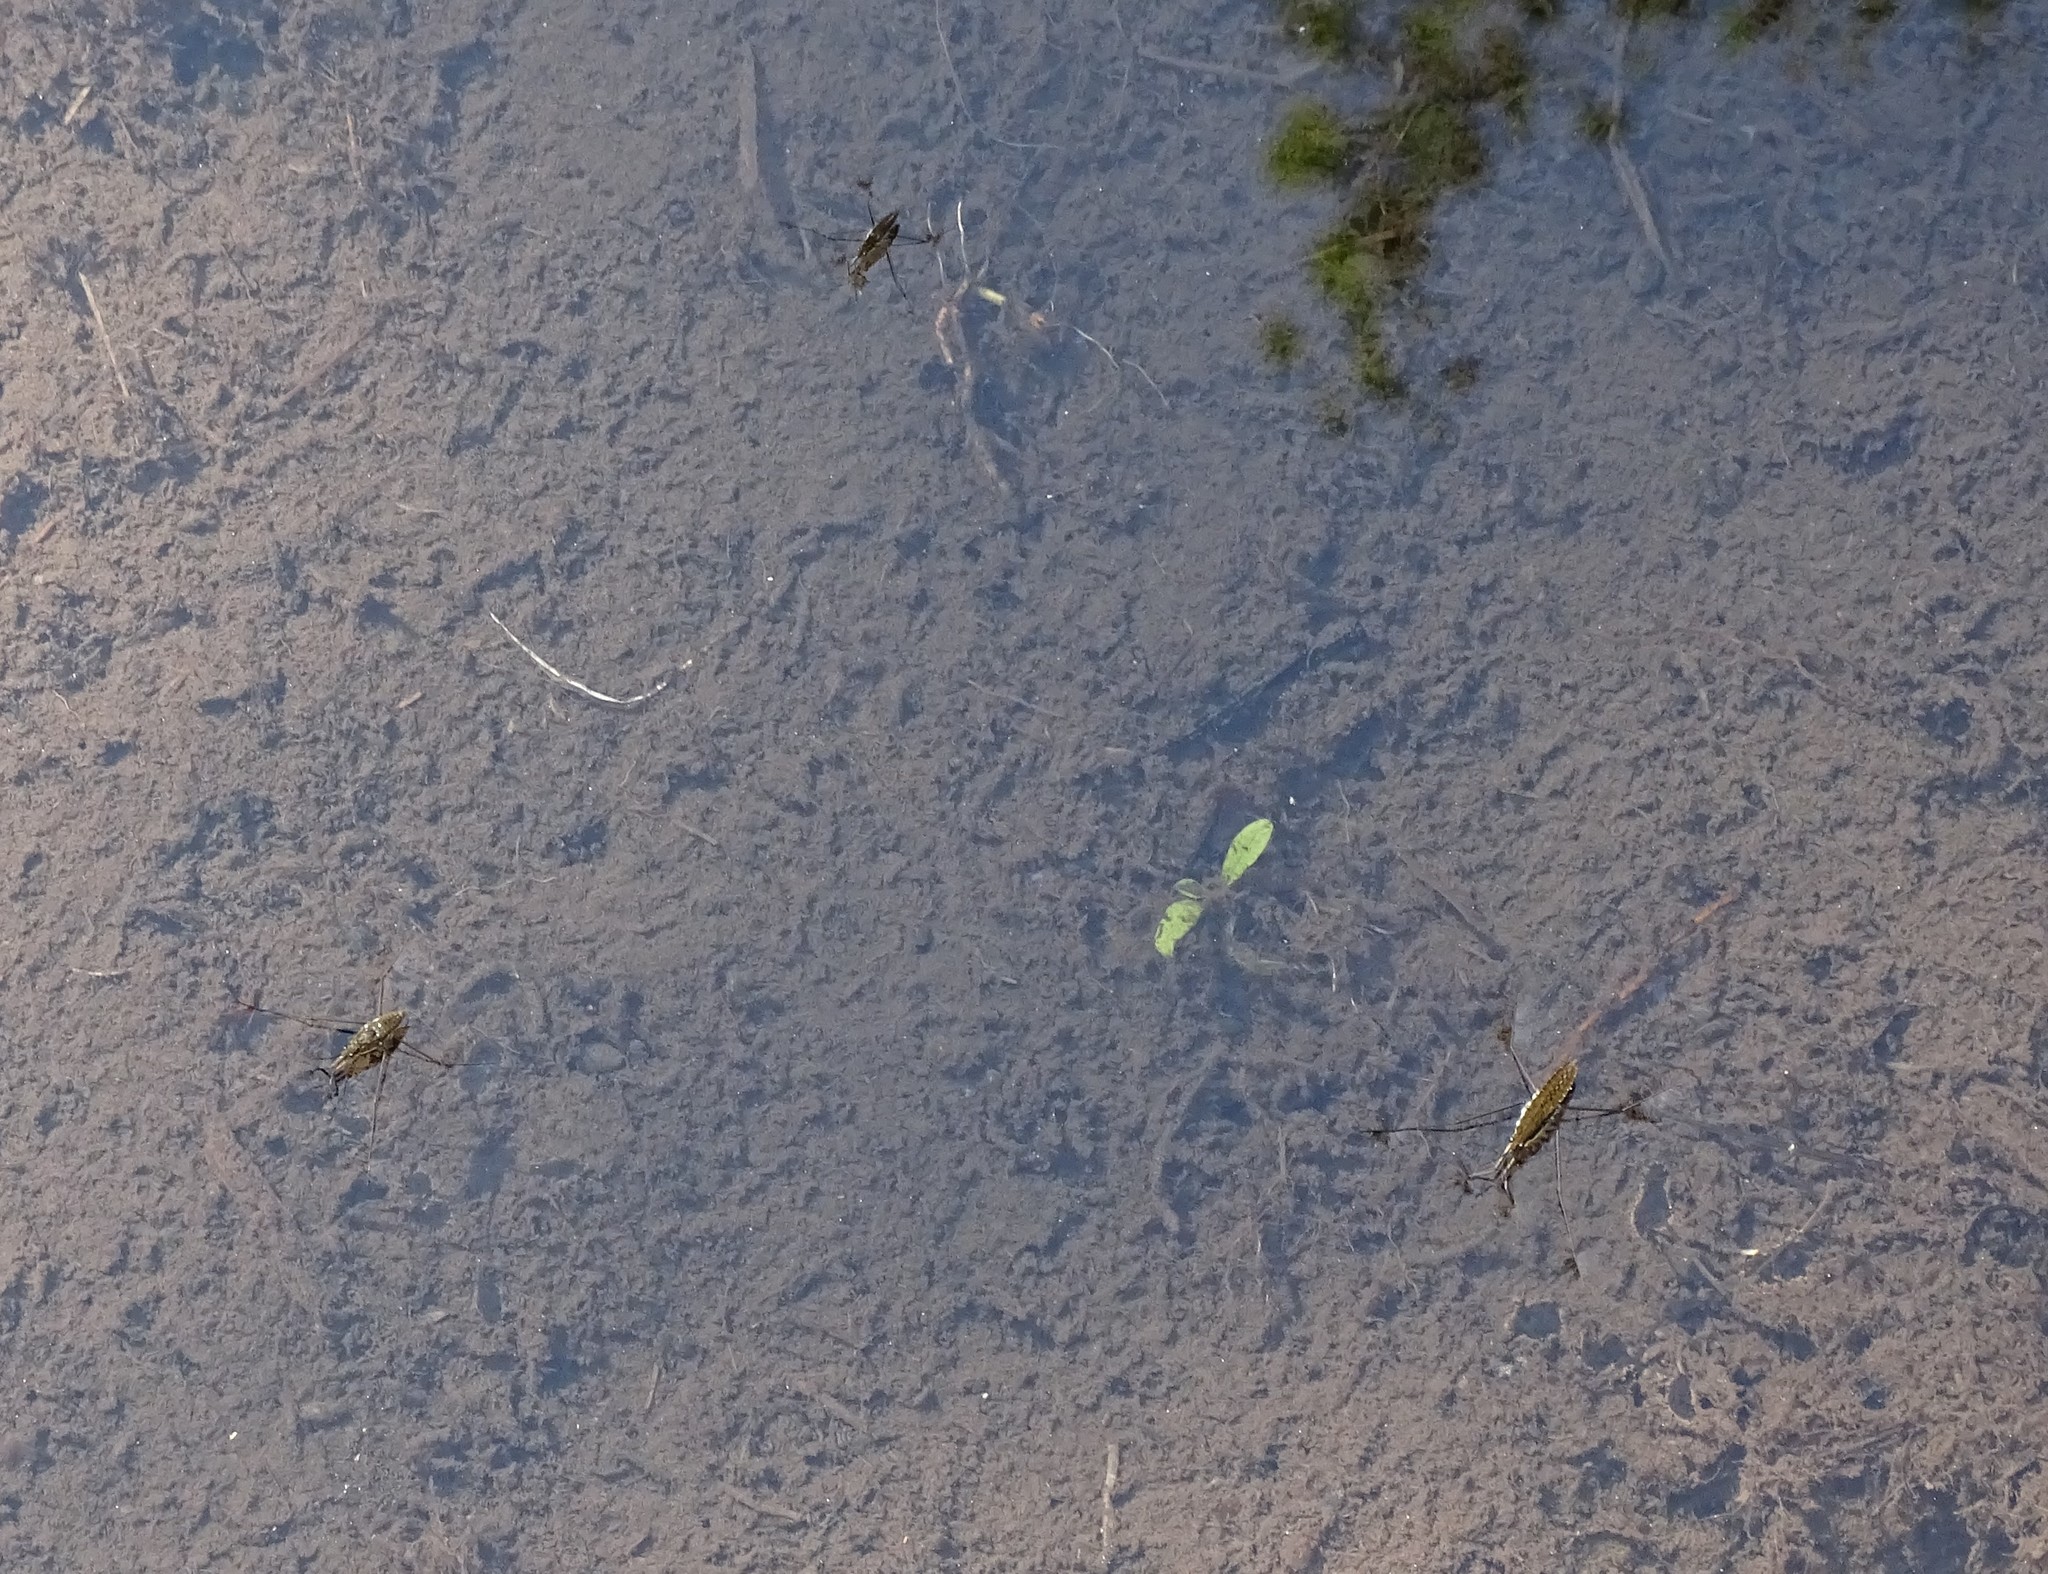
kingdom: Animalia
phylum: Arthropoda
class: Insecta
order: Hemiptera
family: Gerridae
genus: Aquarius
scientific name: Aquarius remigis
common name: Common water strider
